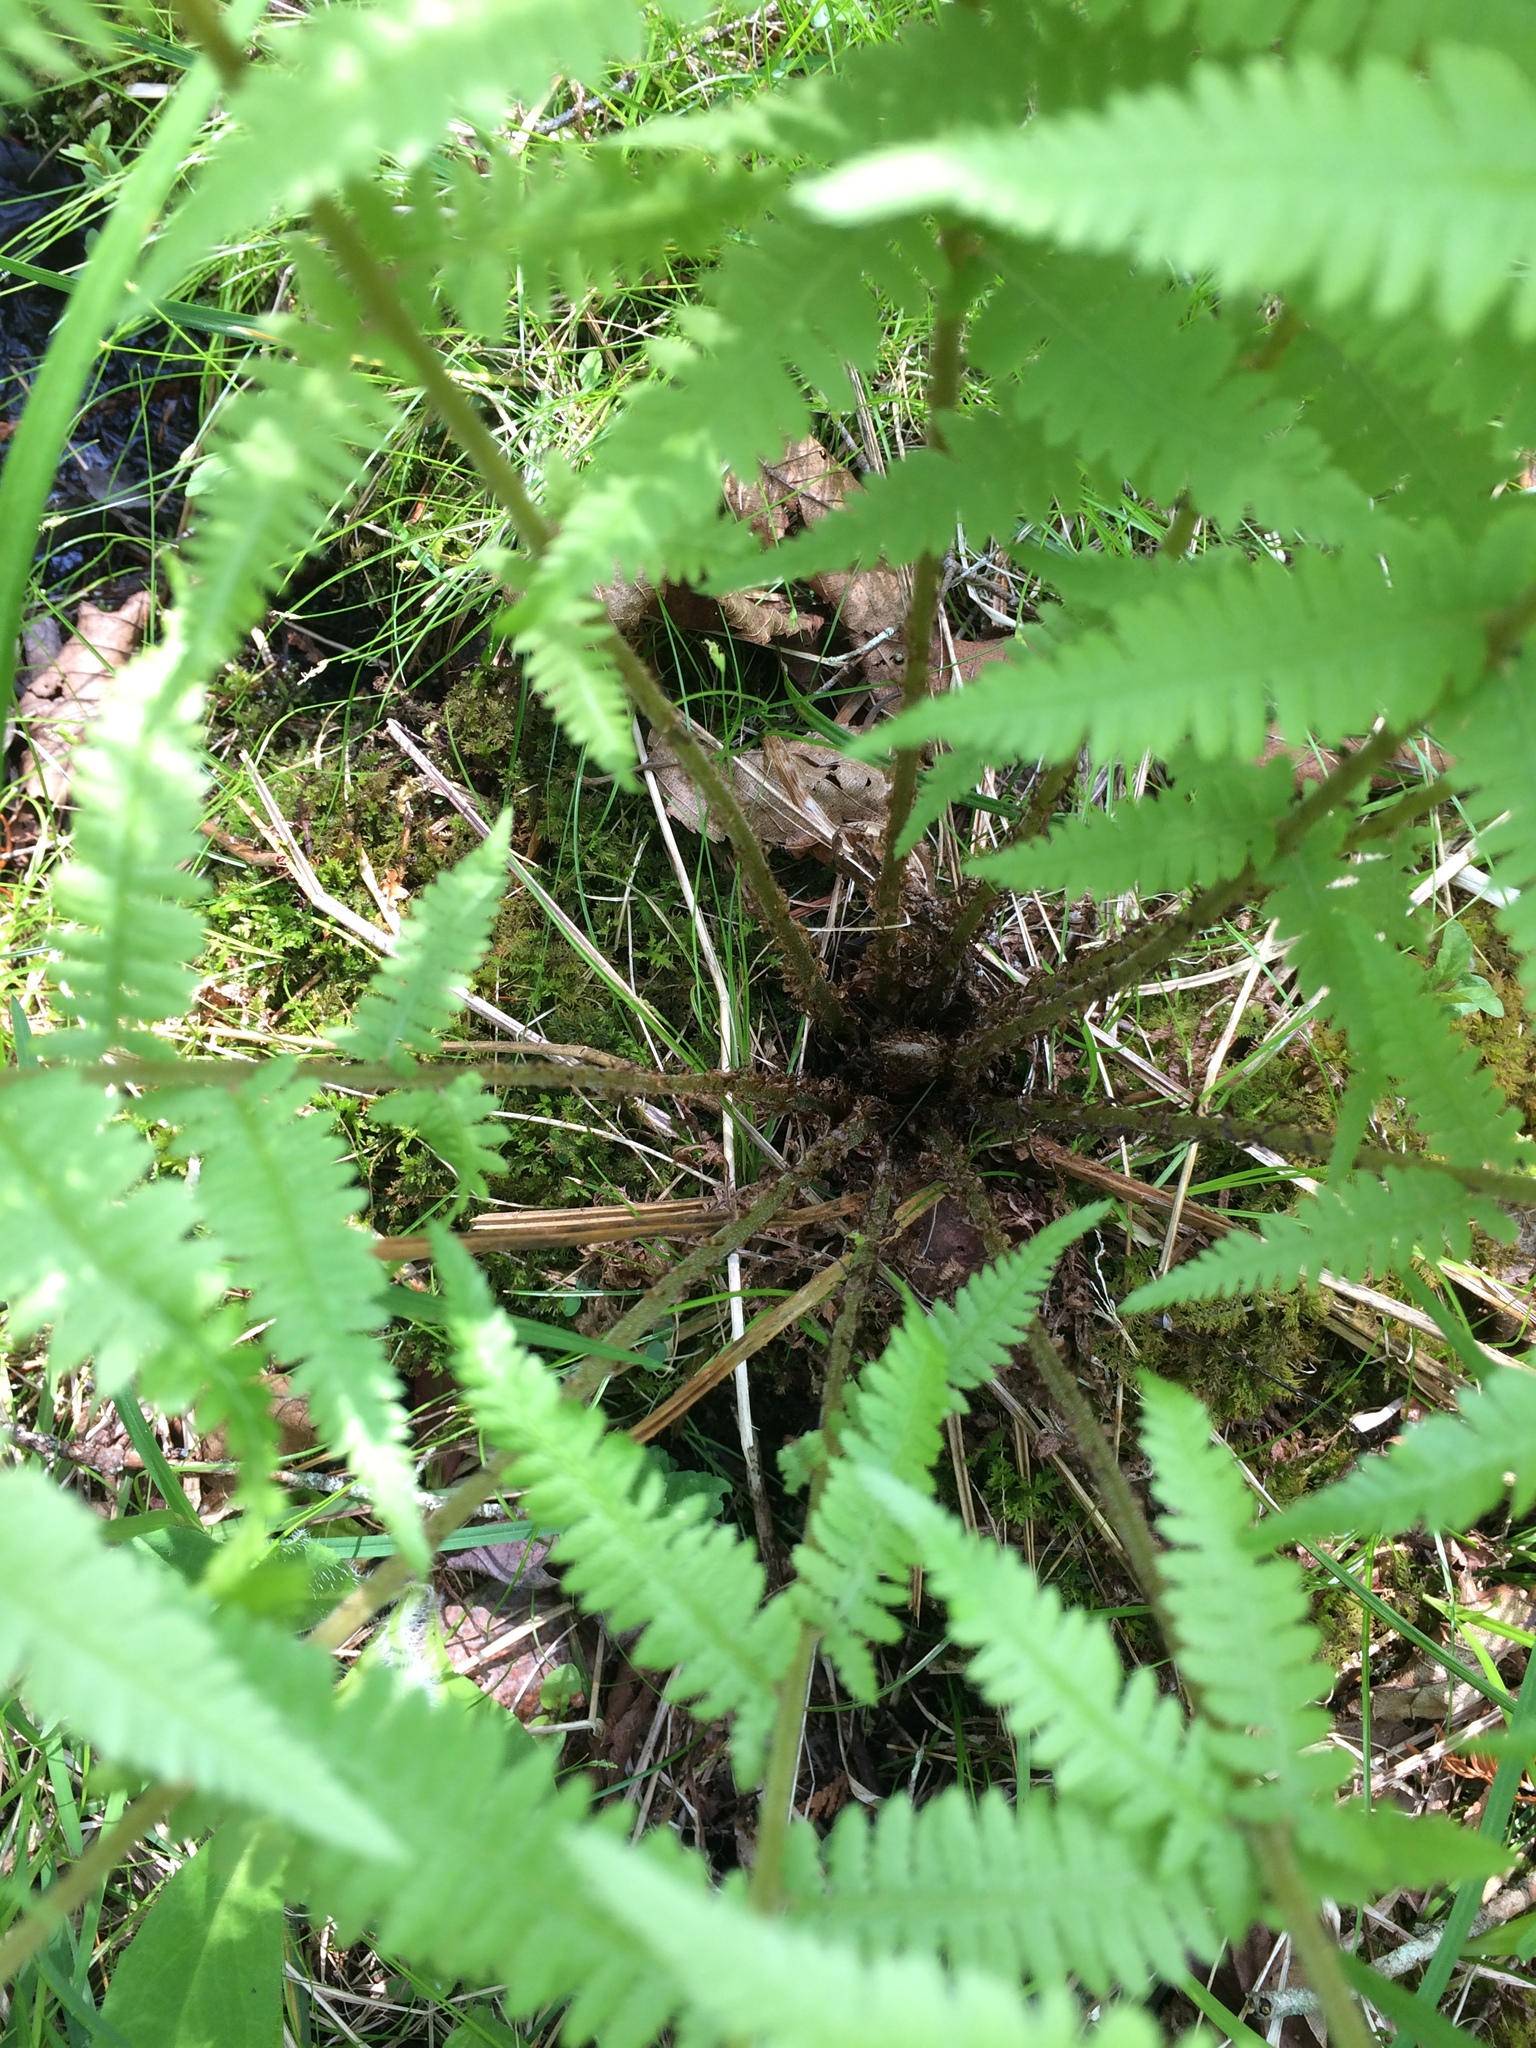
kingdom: Plantae
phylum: Tracheophyta
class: Polypodiopsida
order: Polypodiales
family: Athyriaceae
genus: Athyrium
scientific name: Athyrium angustum
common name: Northern lady fern
